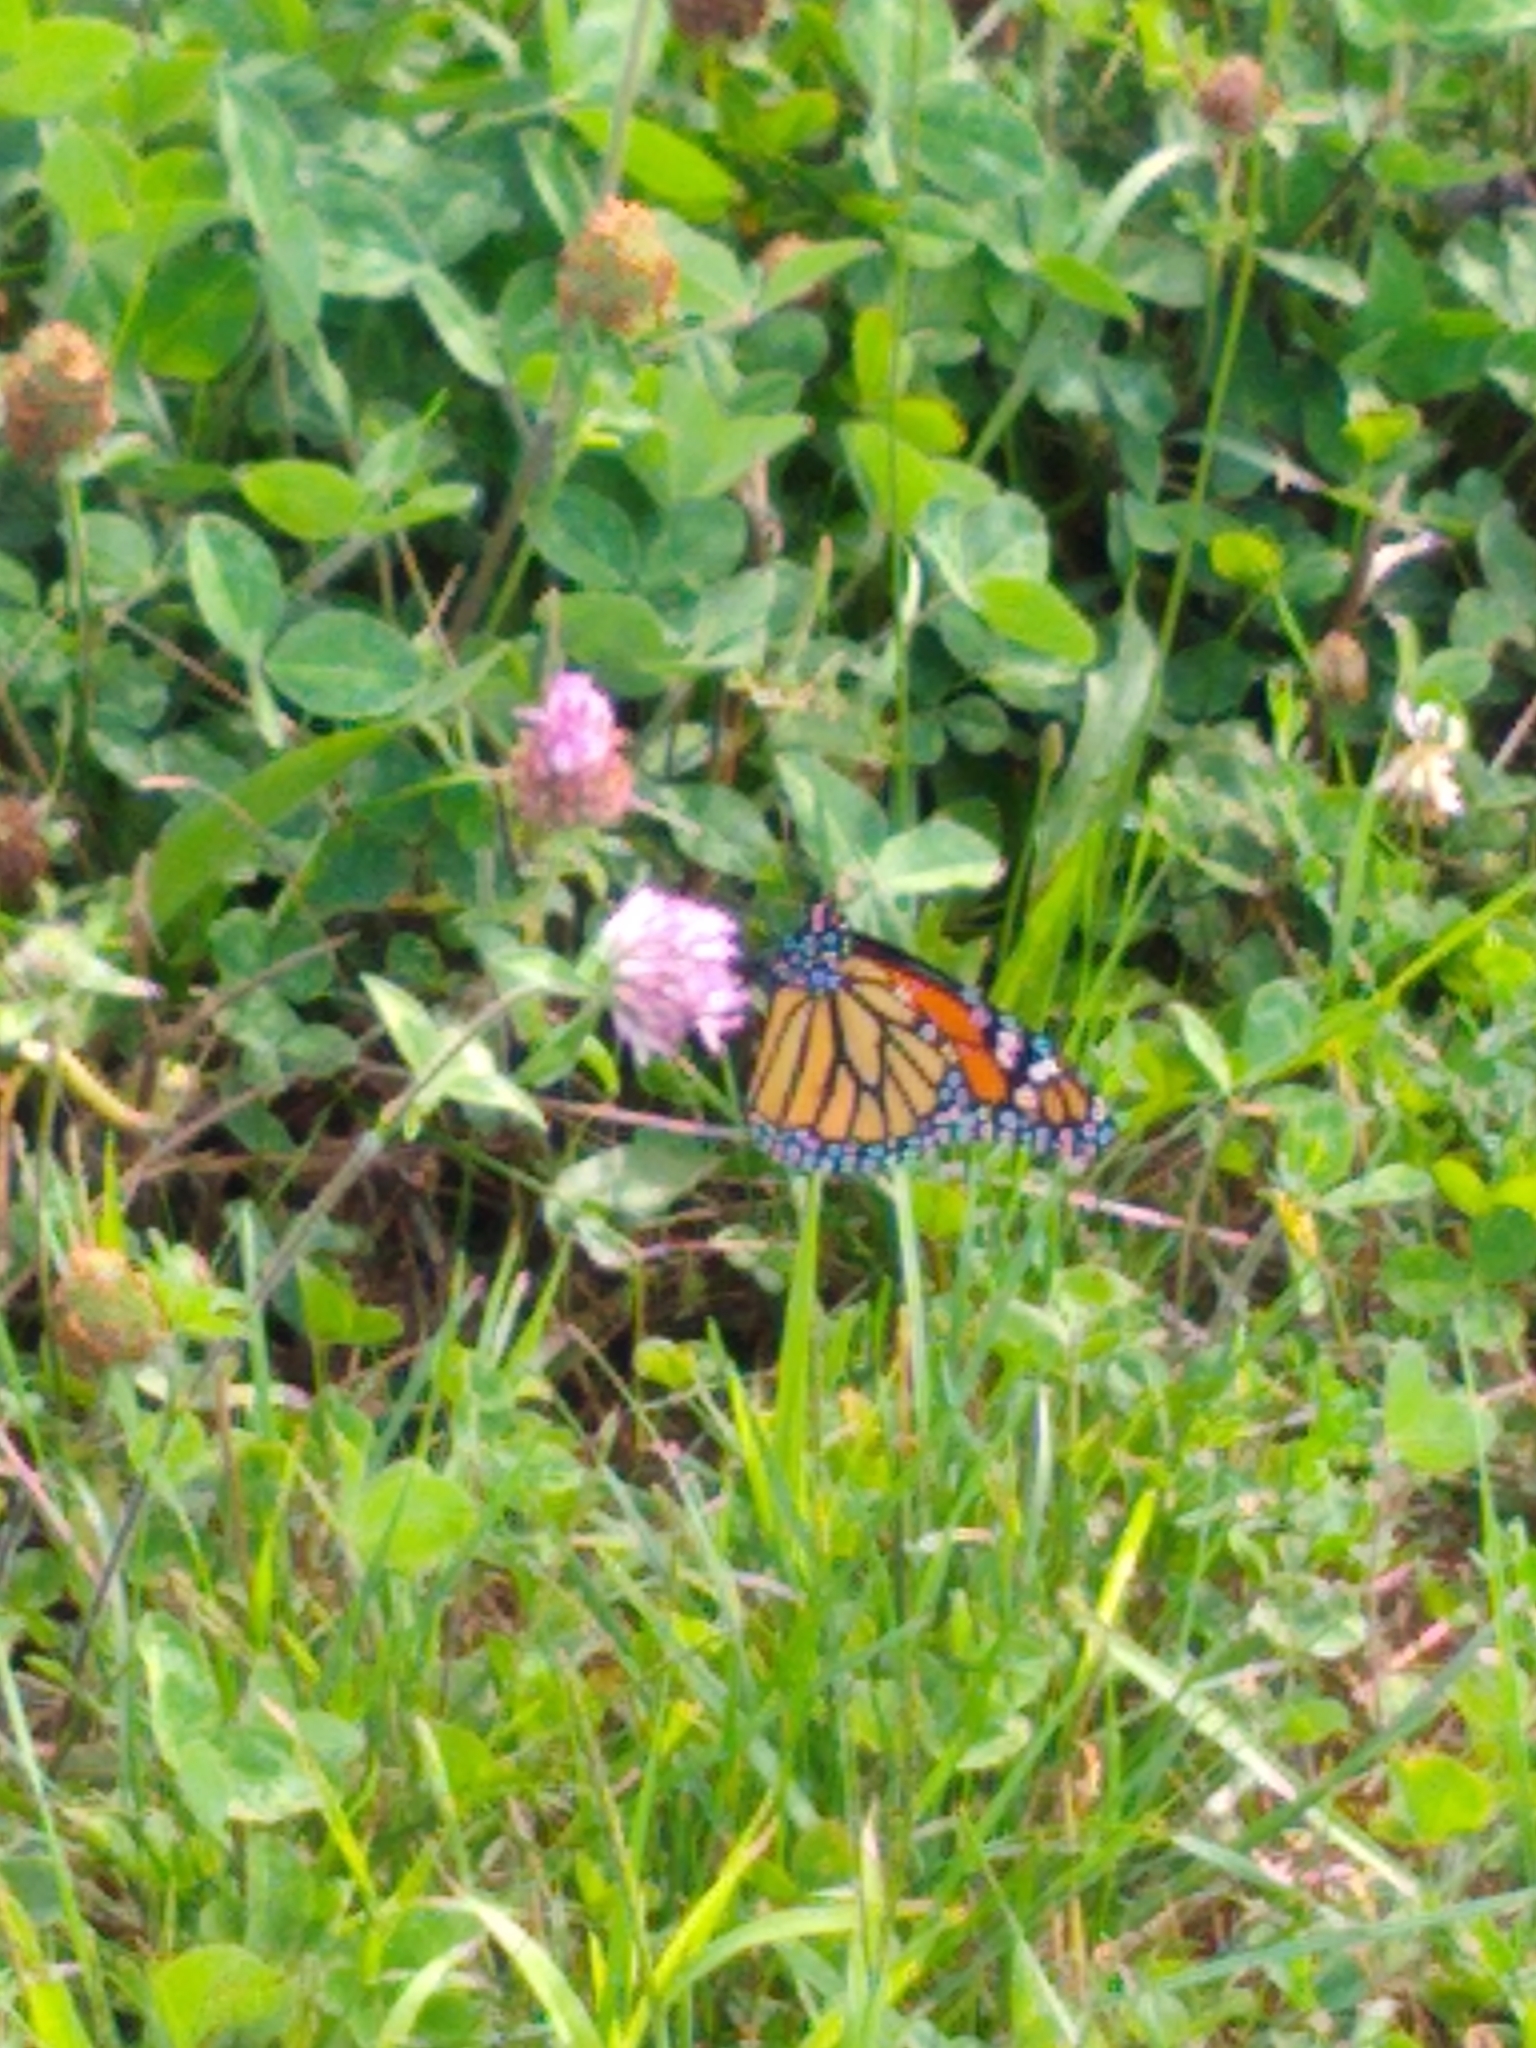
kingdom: Animalia
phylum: Arthropoda
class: Insecta
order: Lepidoptera
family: Nymphalidae
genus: Danaus
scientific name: Danaus plexippus
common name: Monarch
